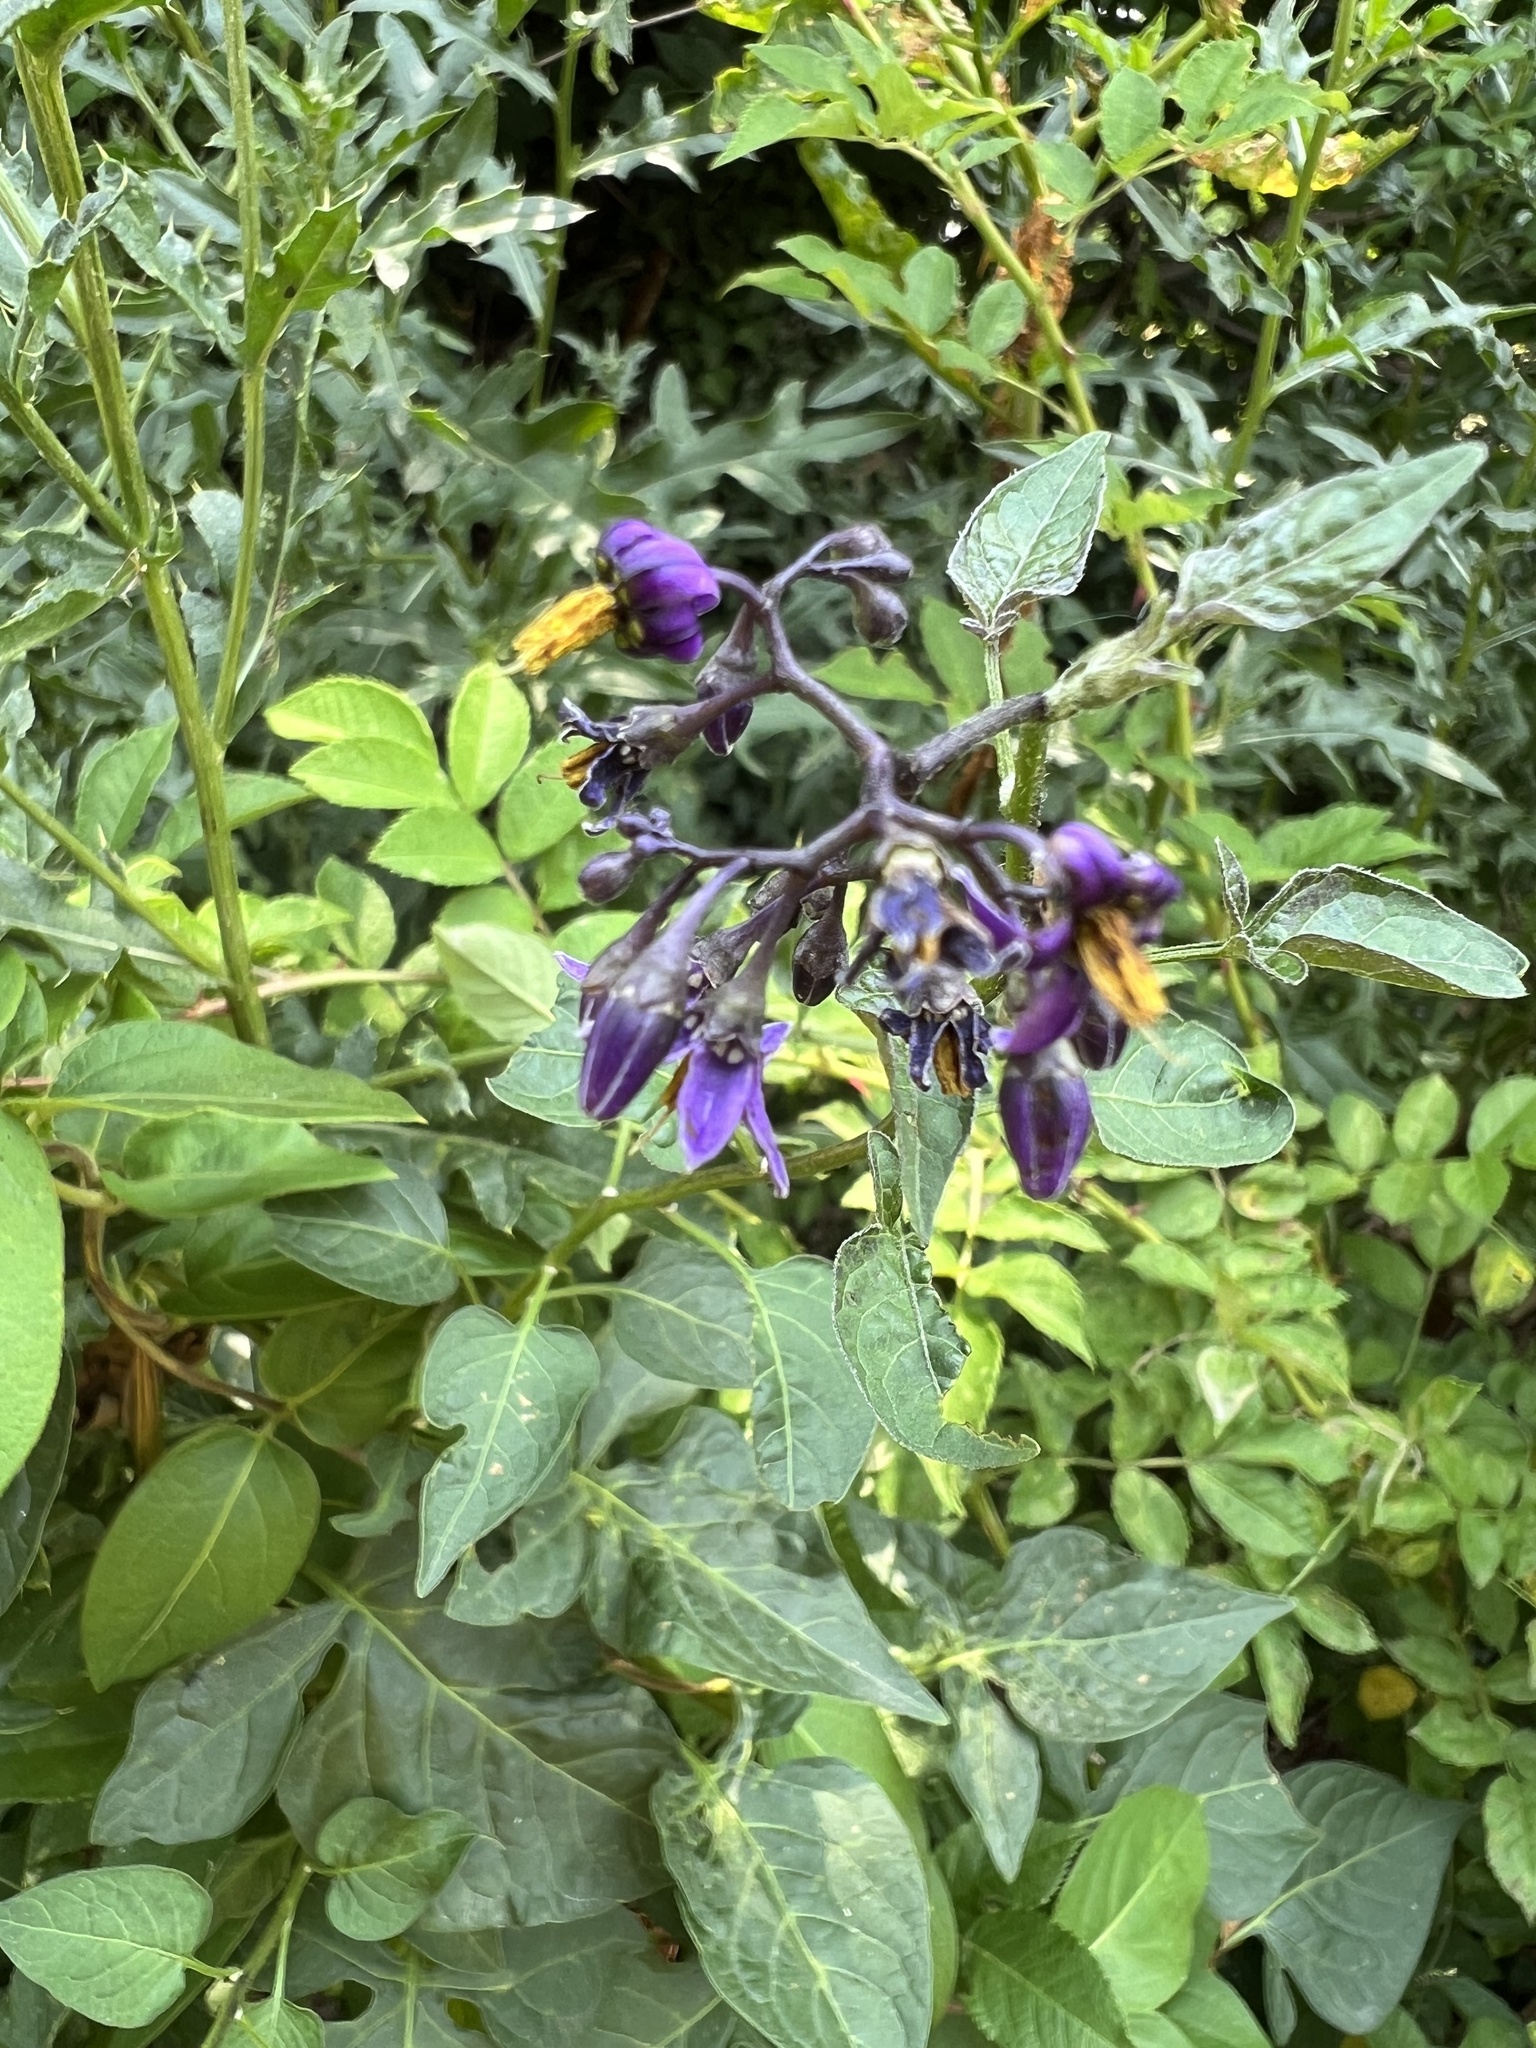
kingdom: Plantae
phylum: Tracheophyta
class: Magnoliopsida
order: Solanales
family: Solanaceae
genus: Solanum
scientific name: Solanum dulcamara
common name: Climbing nightshade
